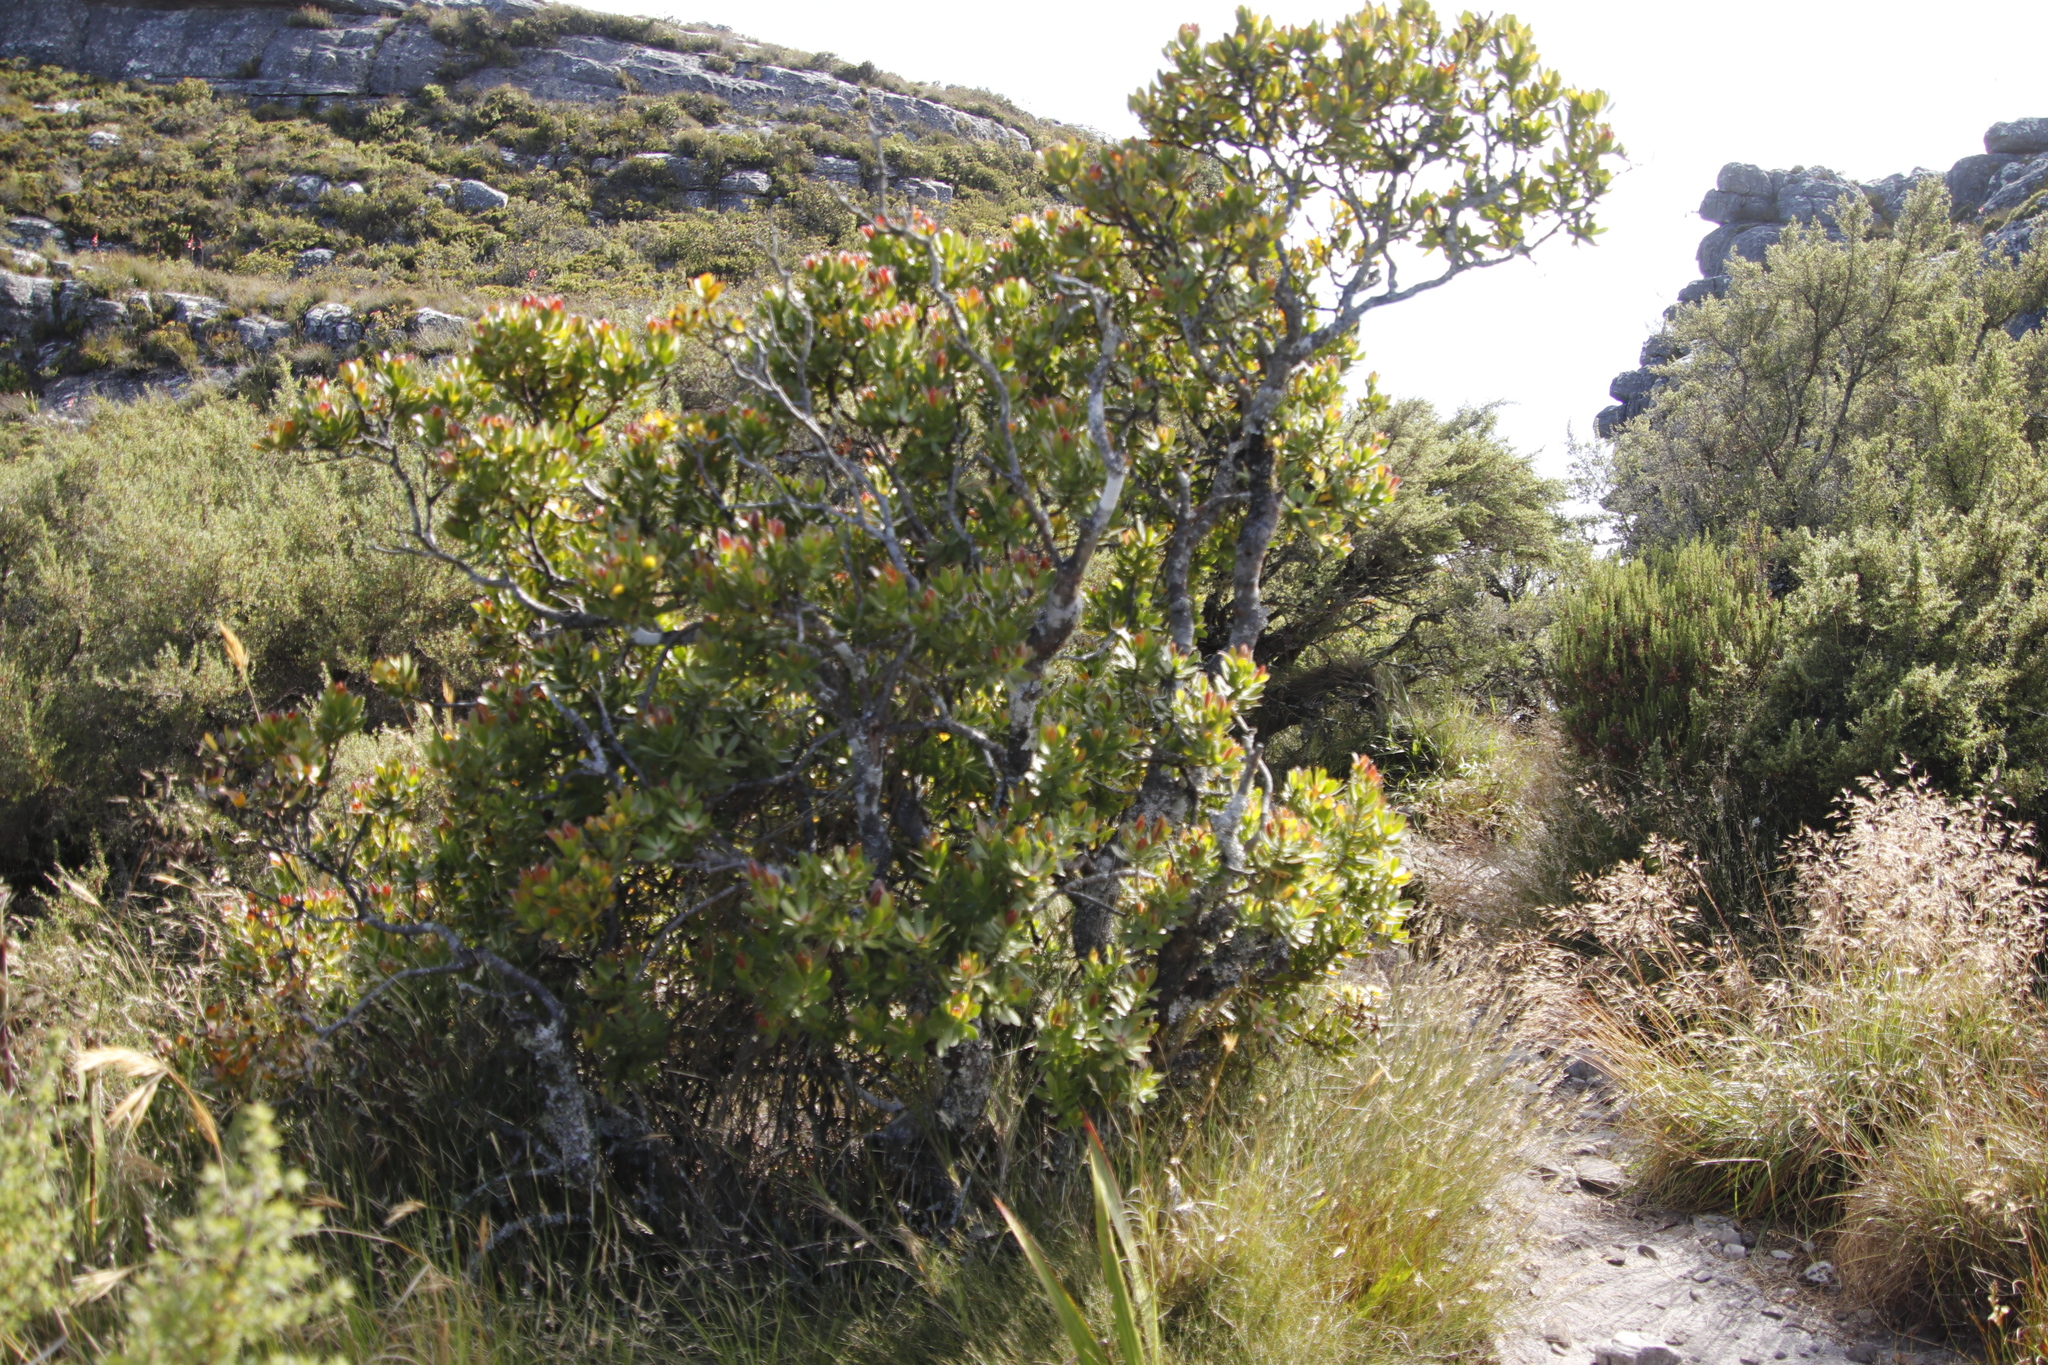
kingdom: Plantae
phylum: Tracheophyta
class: Magnoliopsida
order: Proteales
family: Proteaceae
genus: Leucadendron
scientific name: Leucadendron strobilinum
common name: Mountain rose
